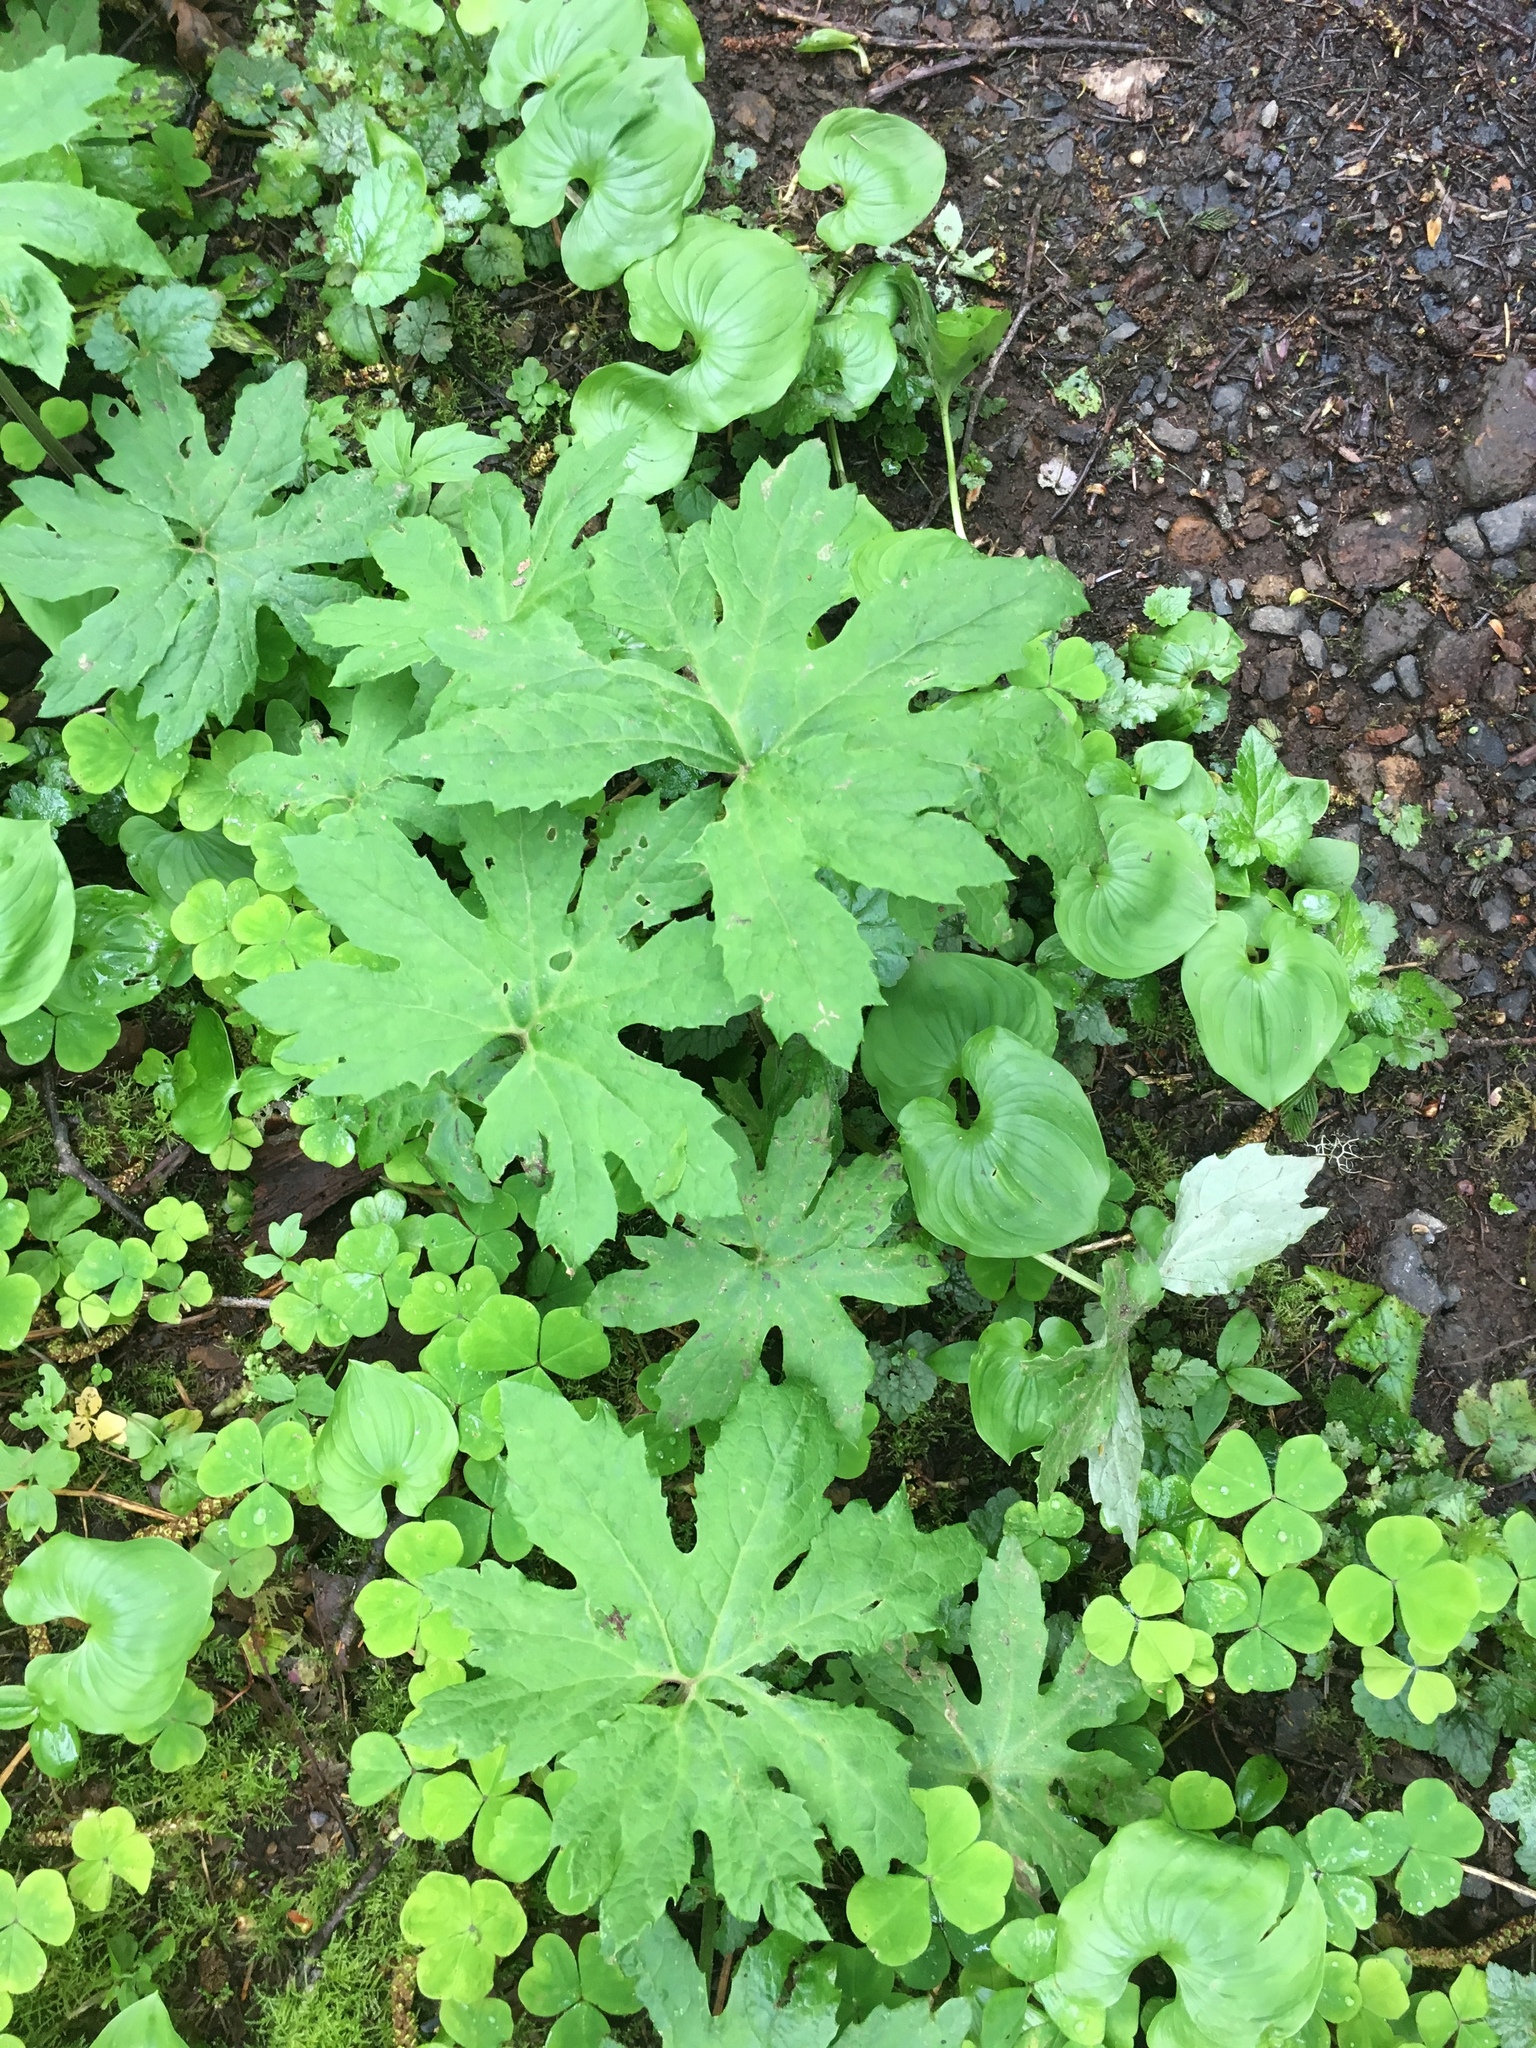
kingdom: Plantae
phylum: Tracheophyta
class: Magnoliopsida
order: Asterales
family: Asteraceae
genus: Petasites
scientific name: Petasites frigidus
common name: Arctic butterbur
